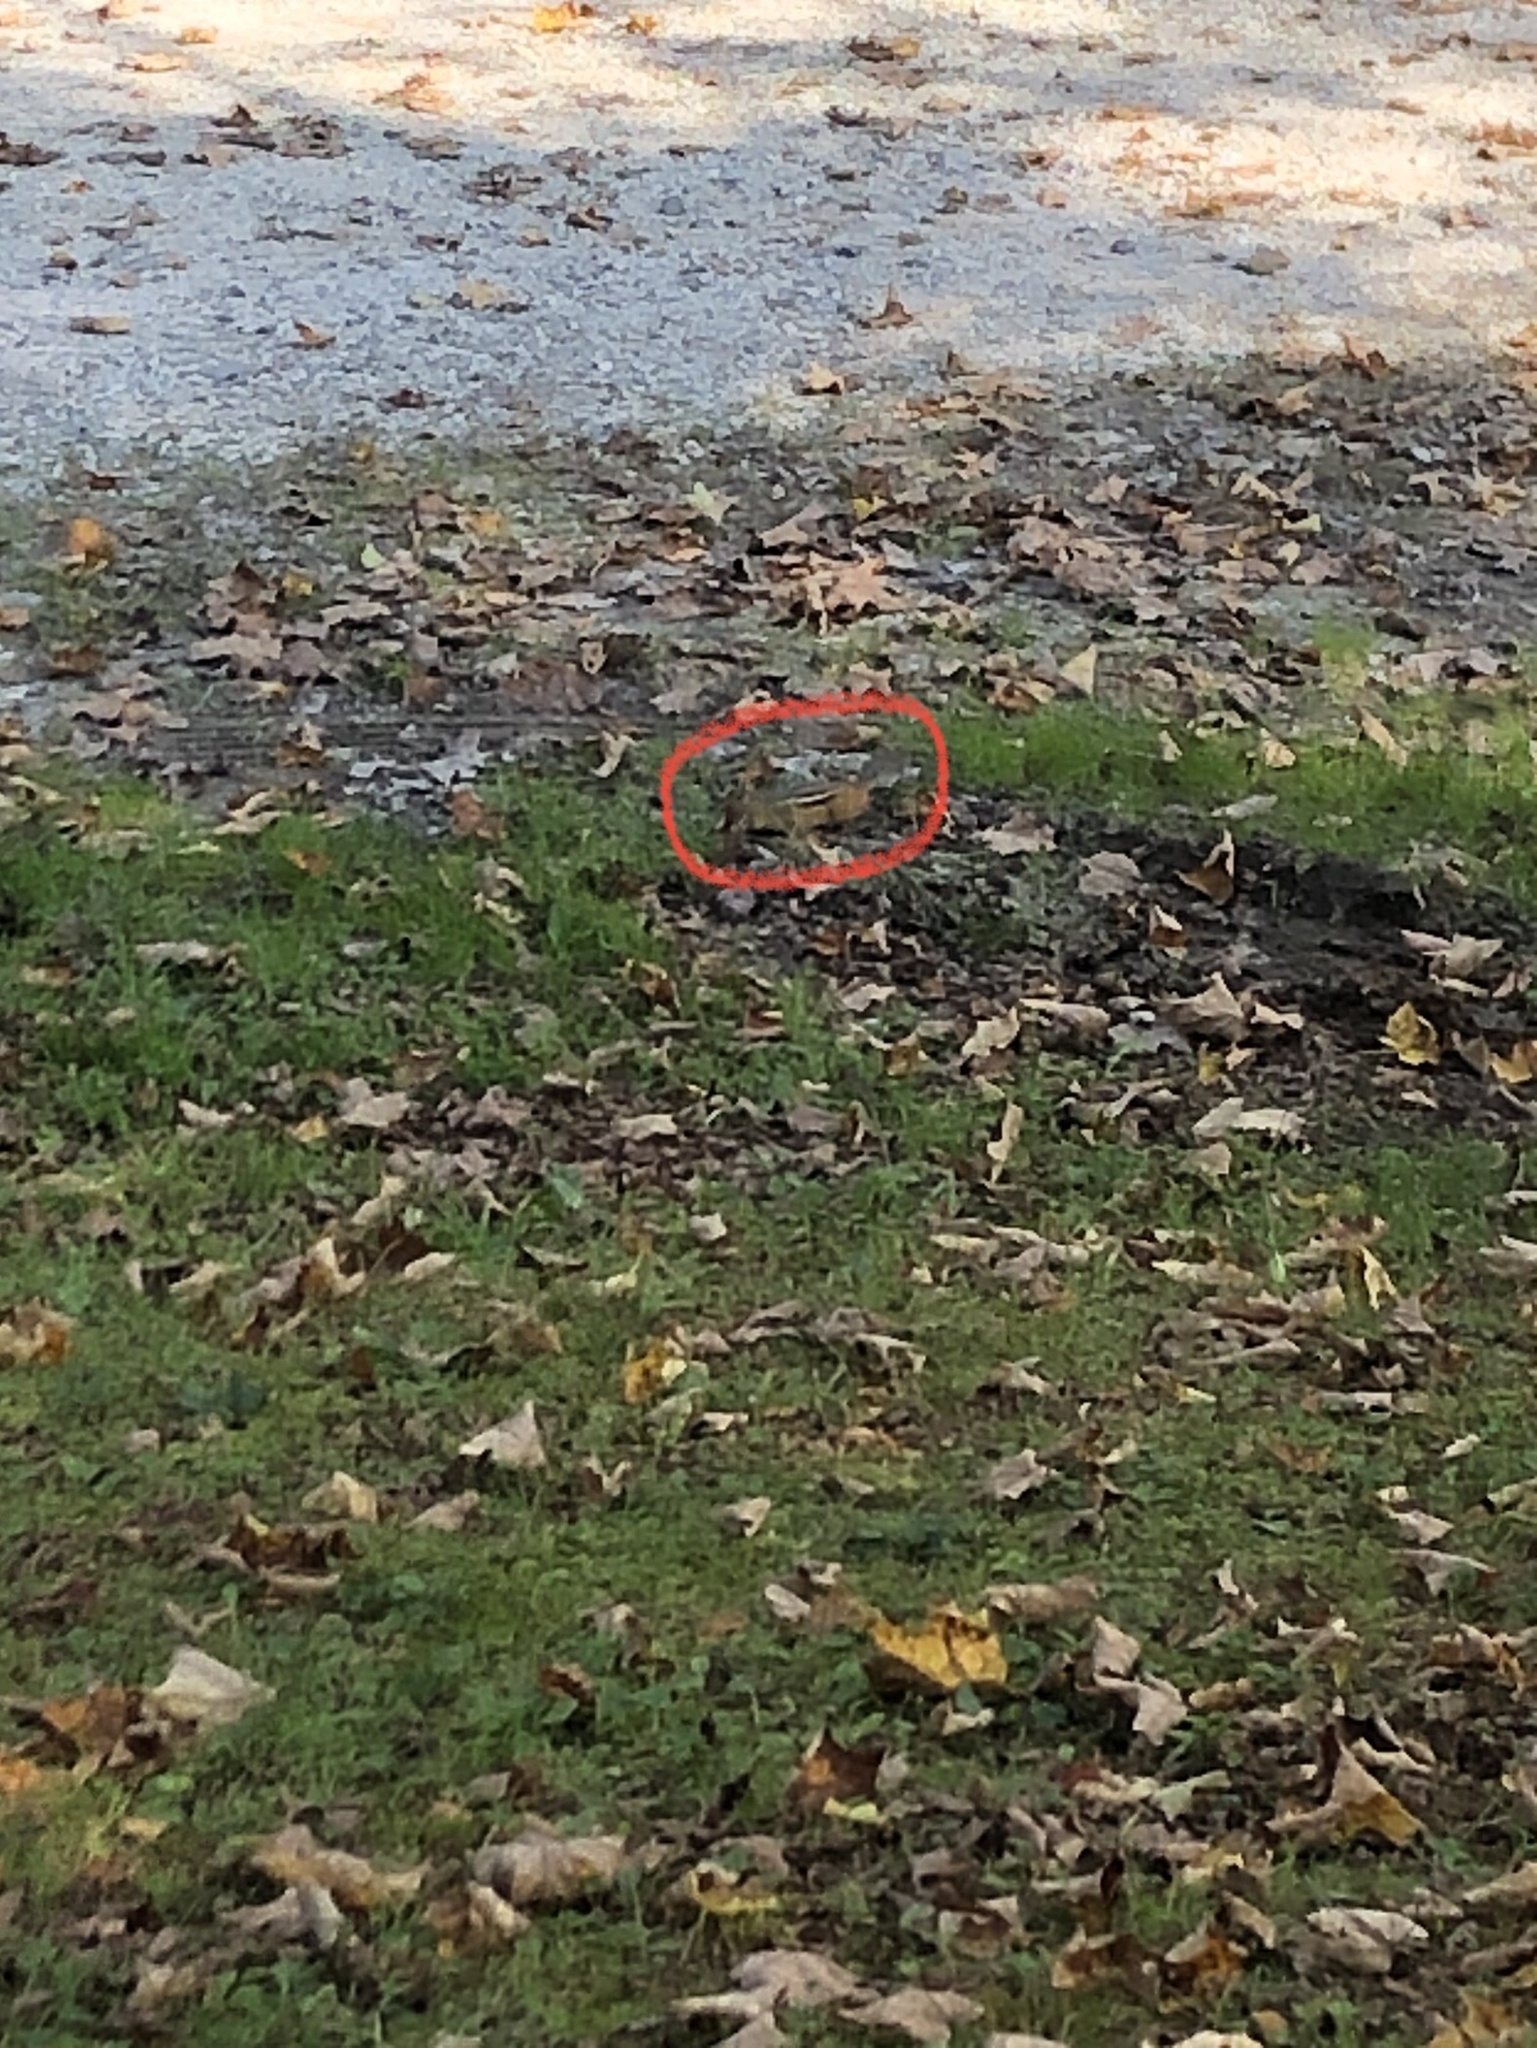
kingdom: Animalia
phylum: Chordata
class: Mammalia
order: Rodentia
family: Sciuridae
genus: Tamias
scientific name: Tamias striatus
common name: Eastern chipmunk
